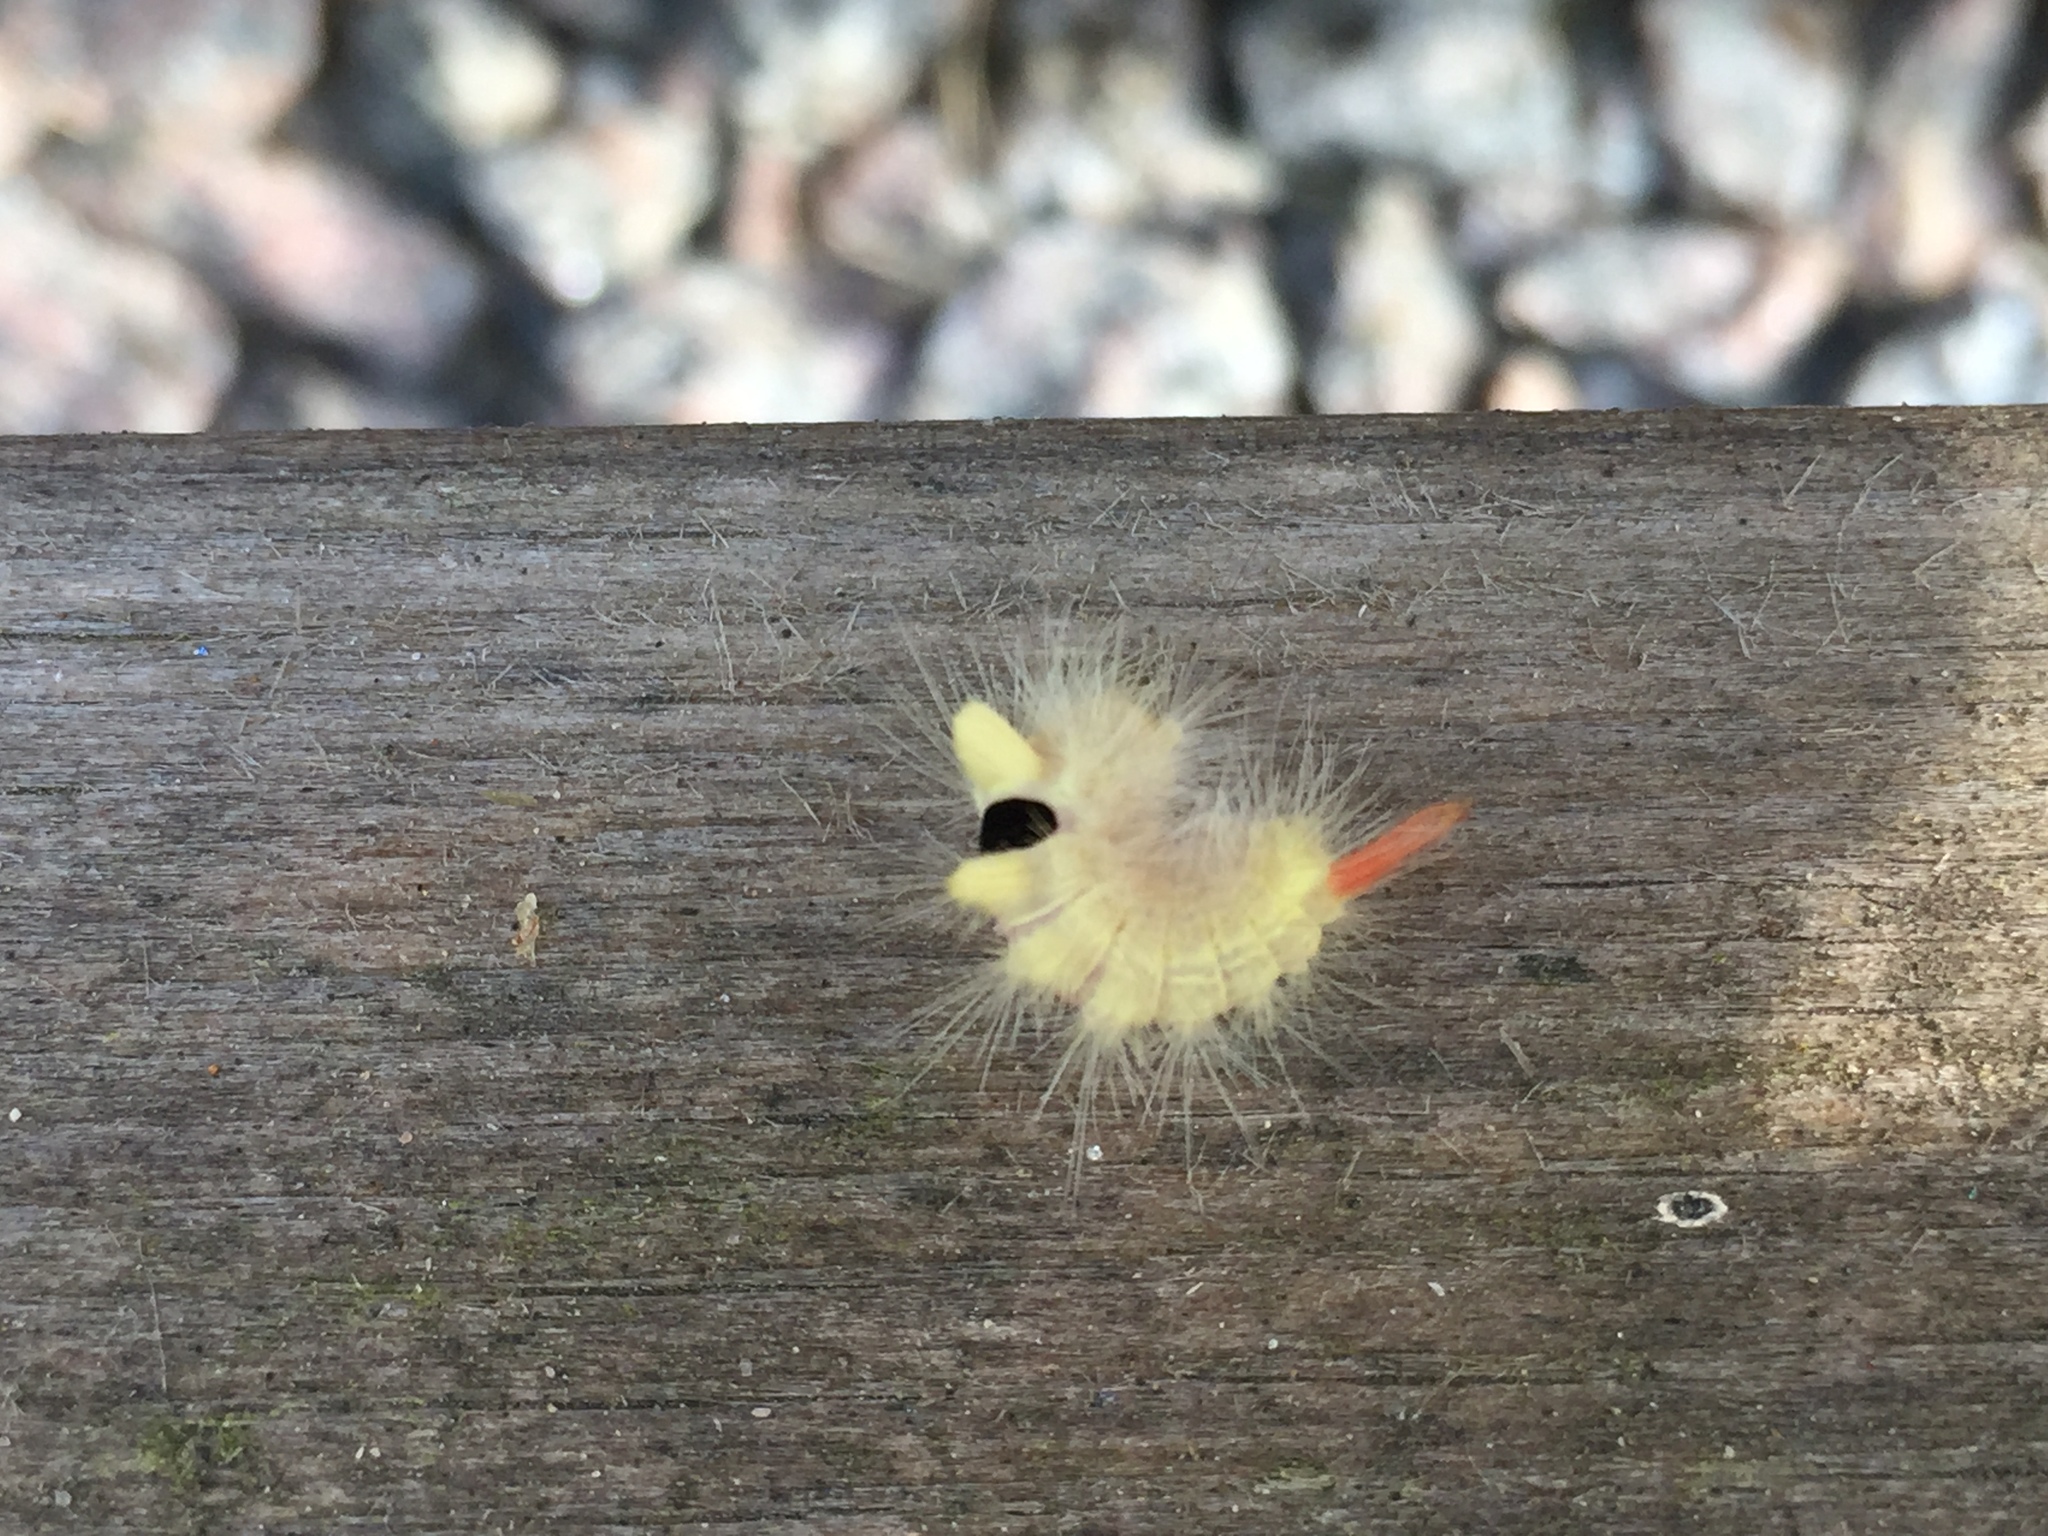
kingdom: Animalia
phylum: Arthropoda
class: Insecta
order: Lepidoptera
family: Erebidae
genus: Calliteara
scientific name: Calliteara pudibunda
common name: Pale tussock
